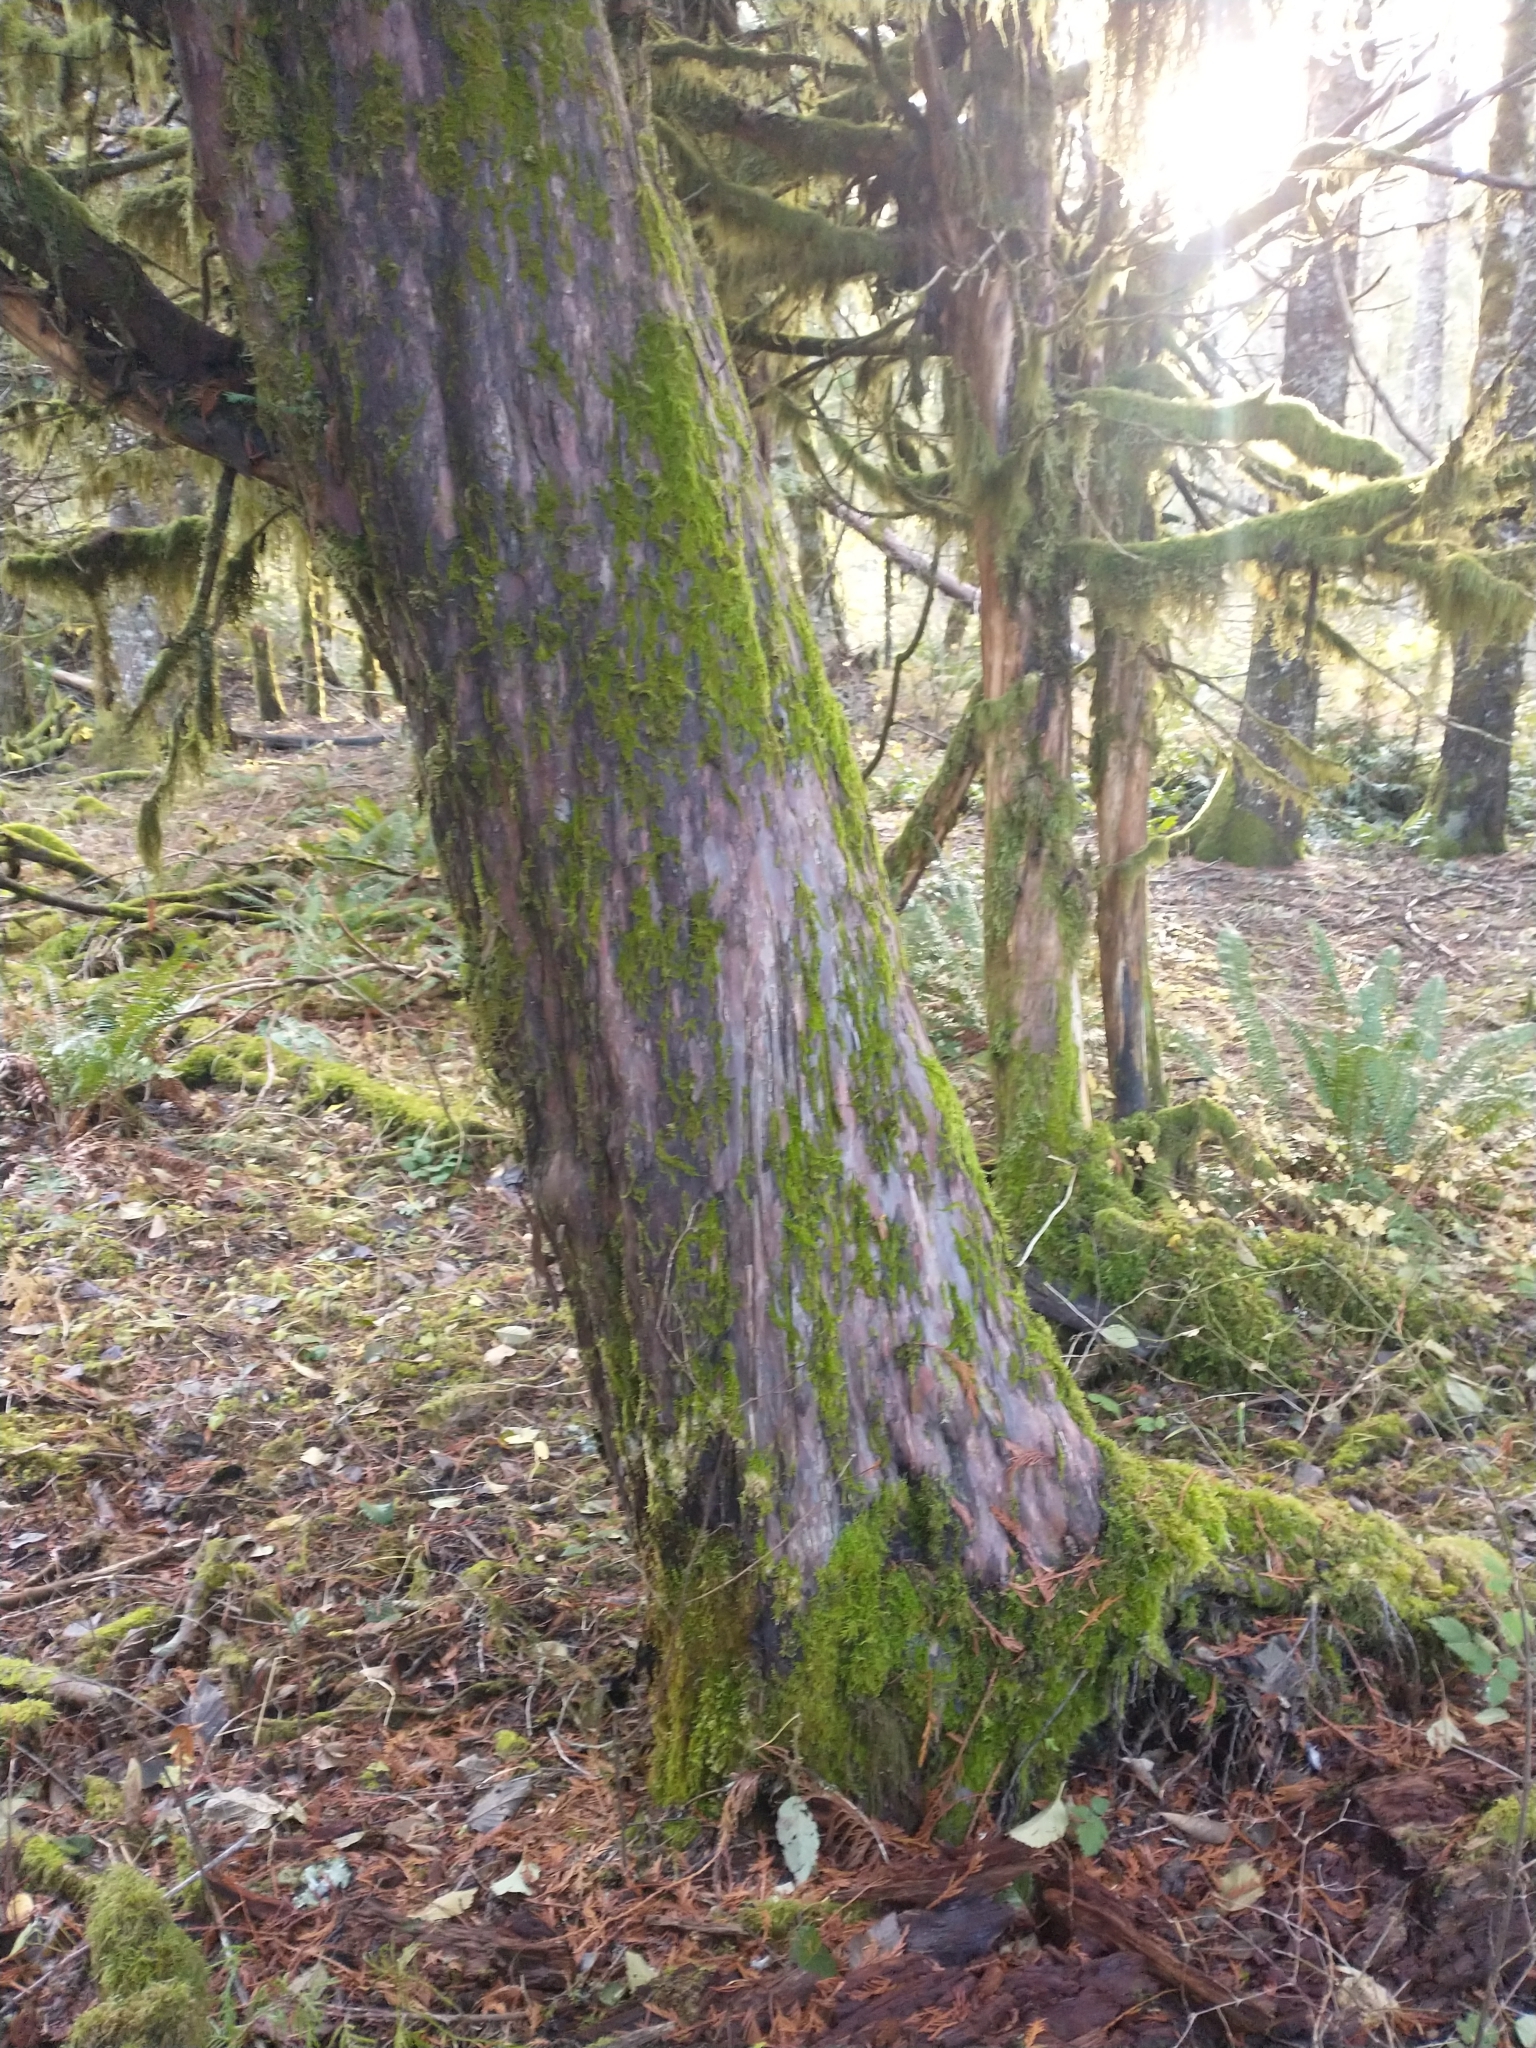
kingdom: Plantae
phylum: Tracheophyta
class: Pinopsida
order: Pinales
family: Taxaceae
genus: Taxus
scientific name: Taxus brevifolia
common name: Pacific yew
